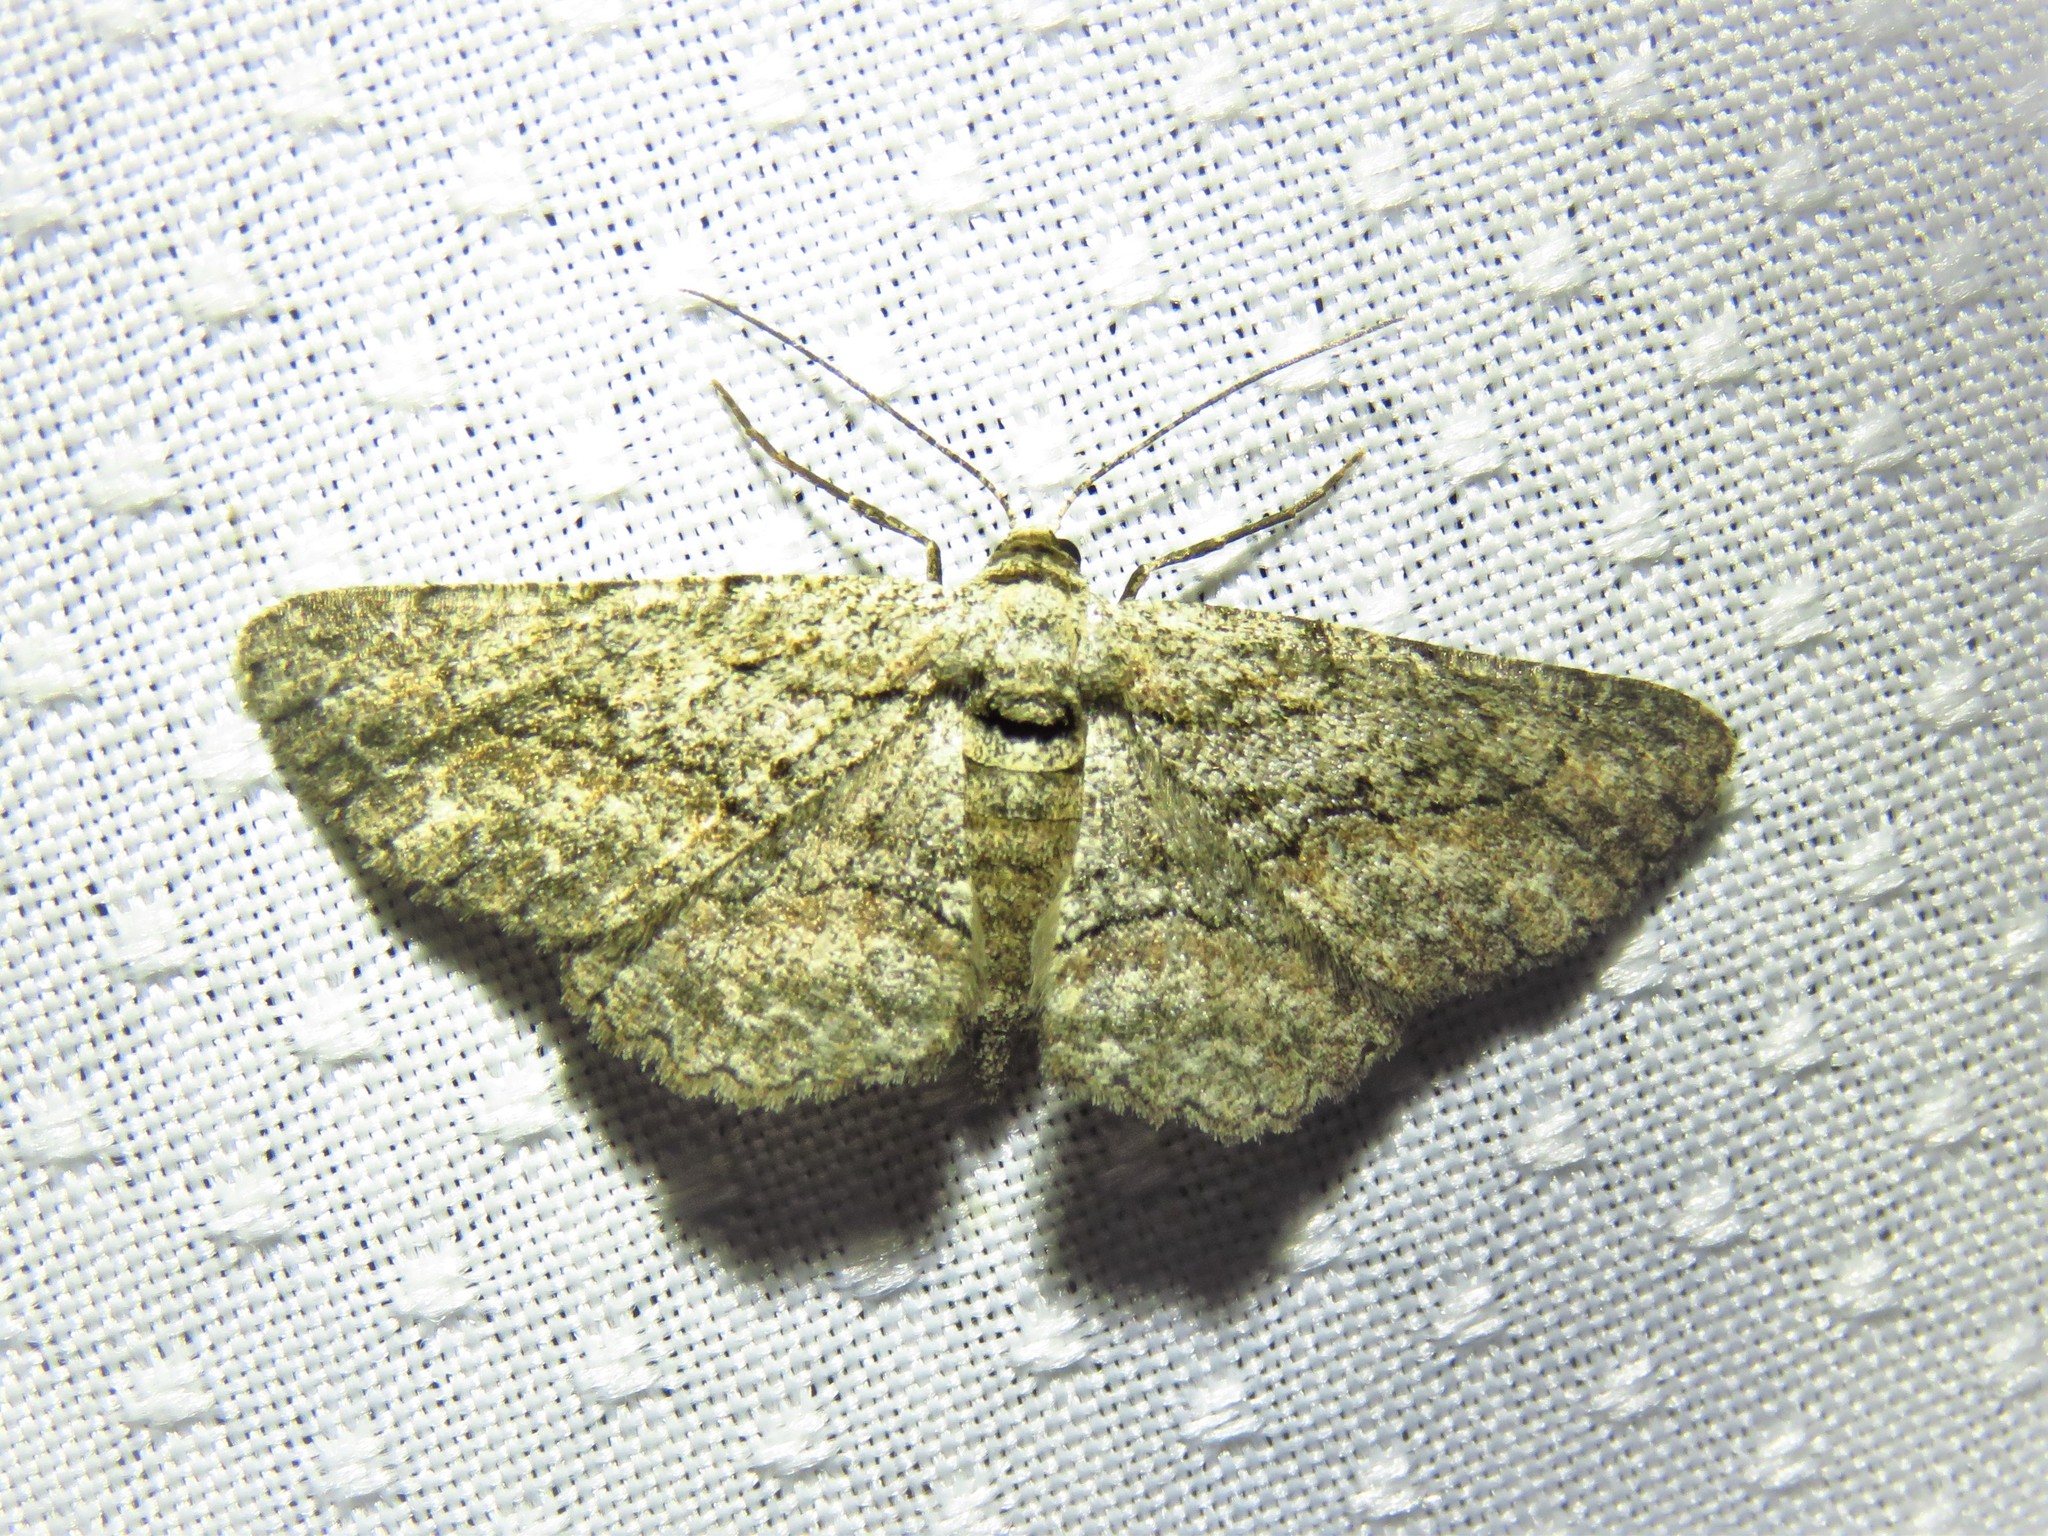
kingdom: Animalia
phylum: Arthropoda
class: Insecta
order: Lepidoptera
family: Geometridae
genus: Glenoides
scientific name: Glenoides texanaria
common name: Texas gray
